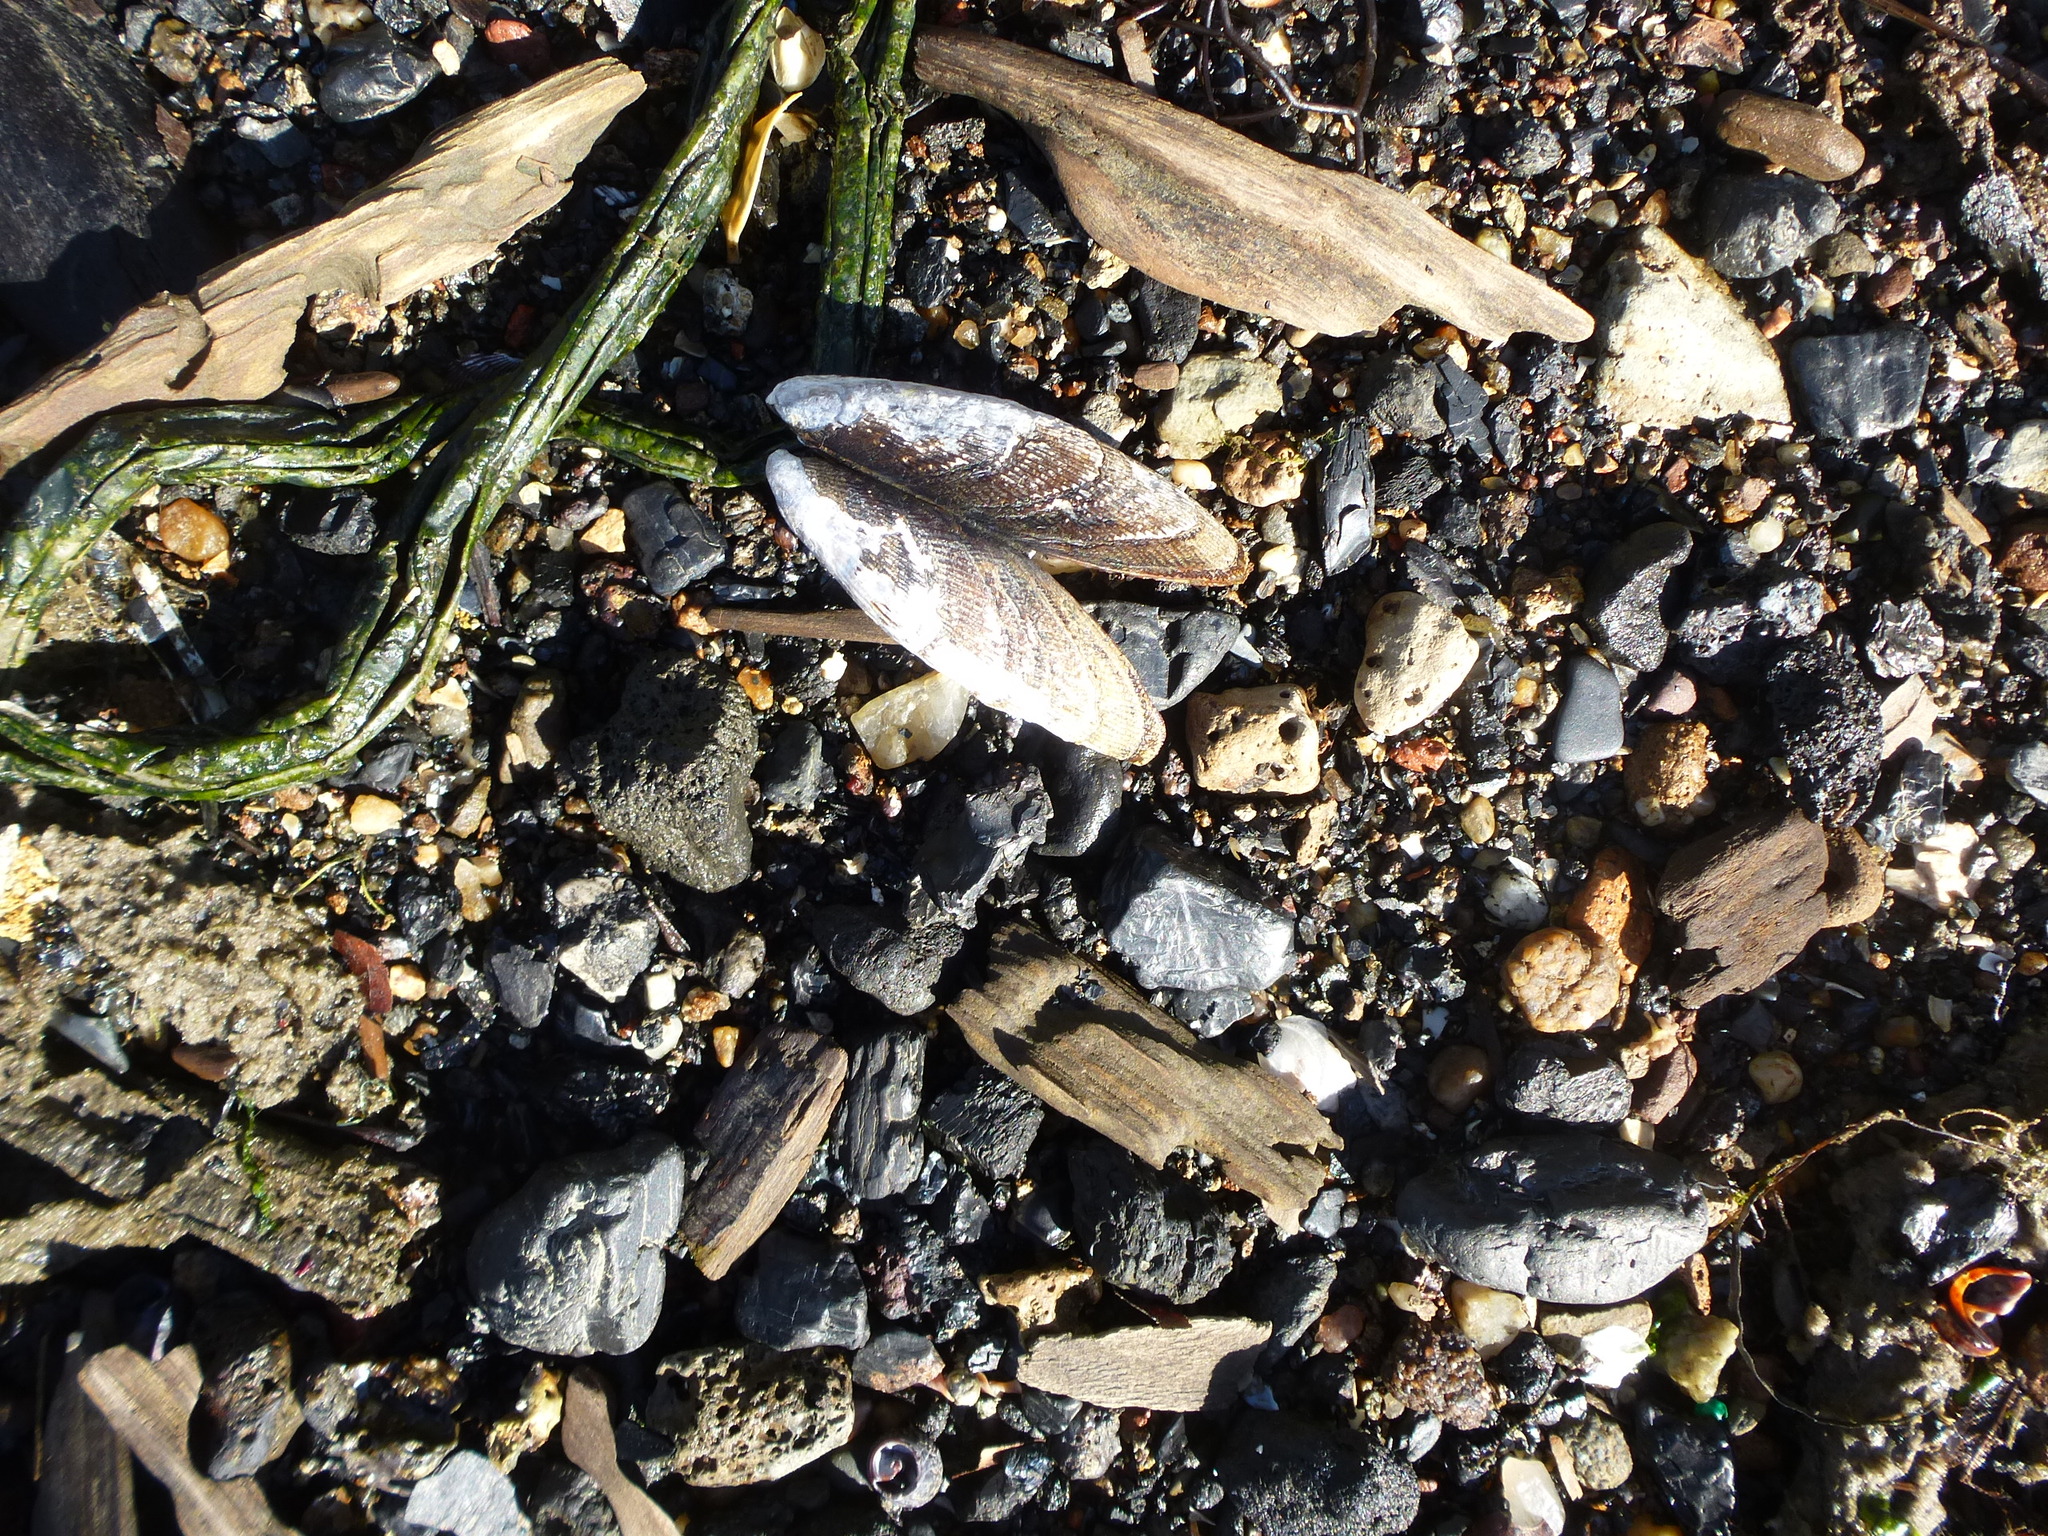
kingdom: Animalia
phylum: Mollusca
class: Bivalvia
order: Mytilida
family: Mytilidae
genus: Geukensia
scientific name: Geukensia demissa
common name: Ribbed mussel
